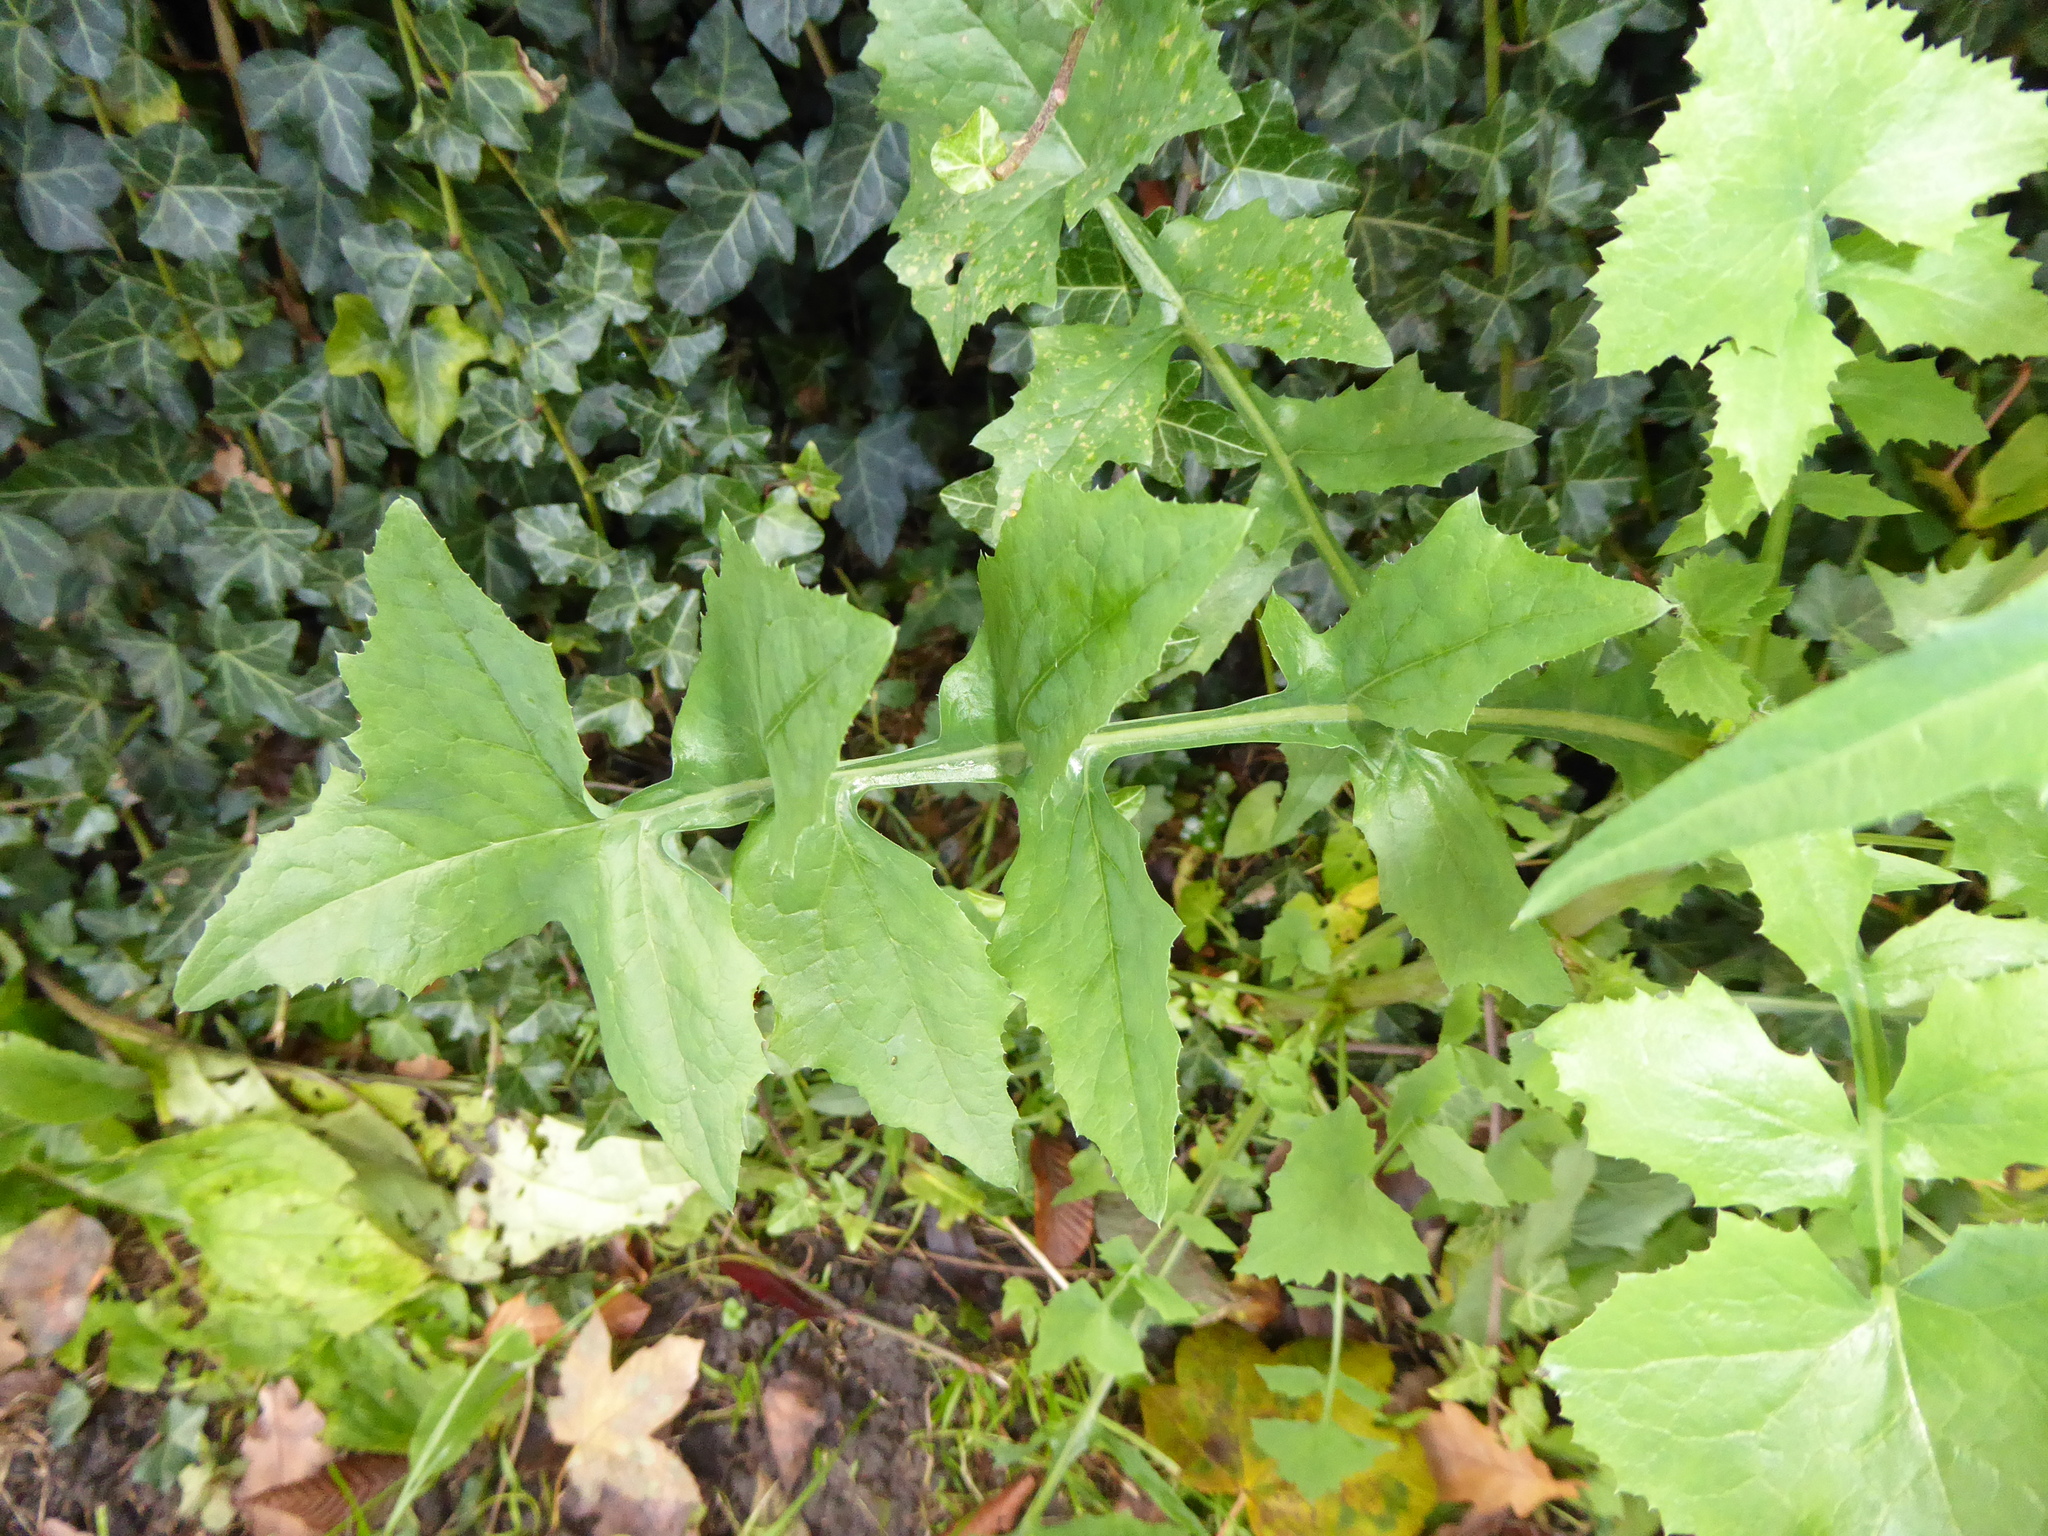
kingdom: Plantae
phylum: Tracheophyta
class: Magnoliopsida
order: Asterales
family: Asteraceae
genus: Sonchus
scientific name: Sonchus oleraceus
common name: Common sowthistle
